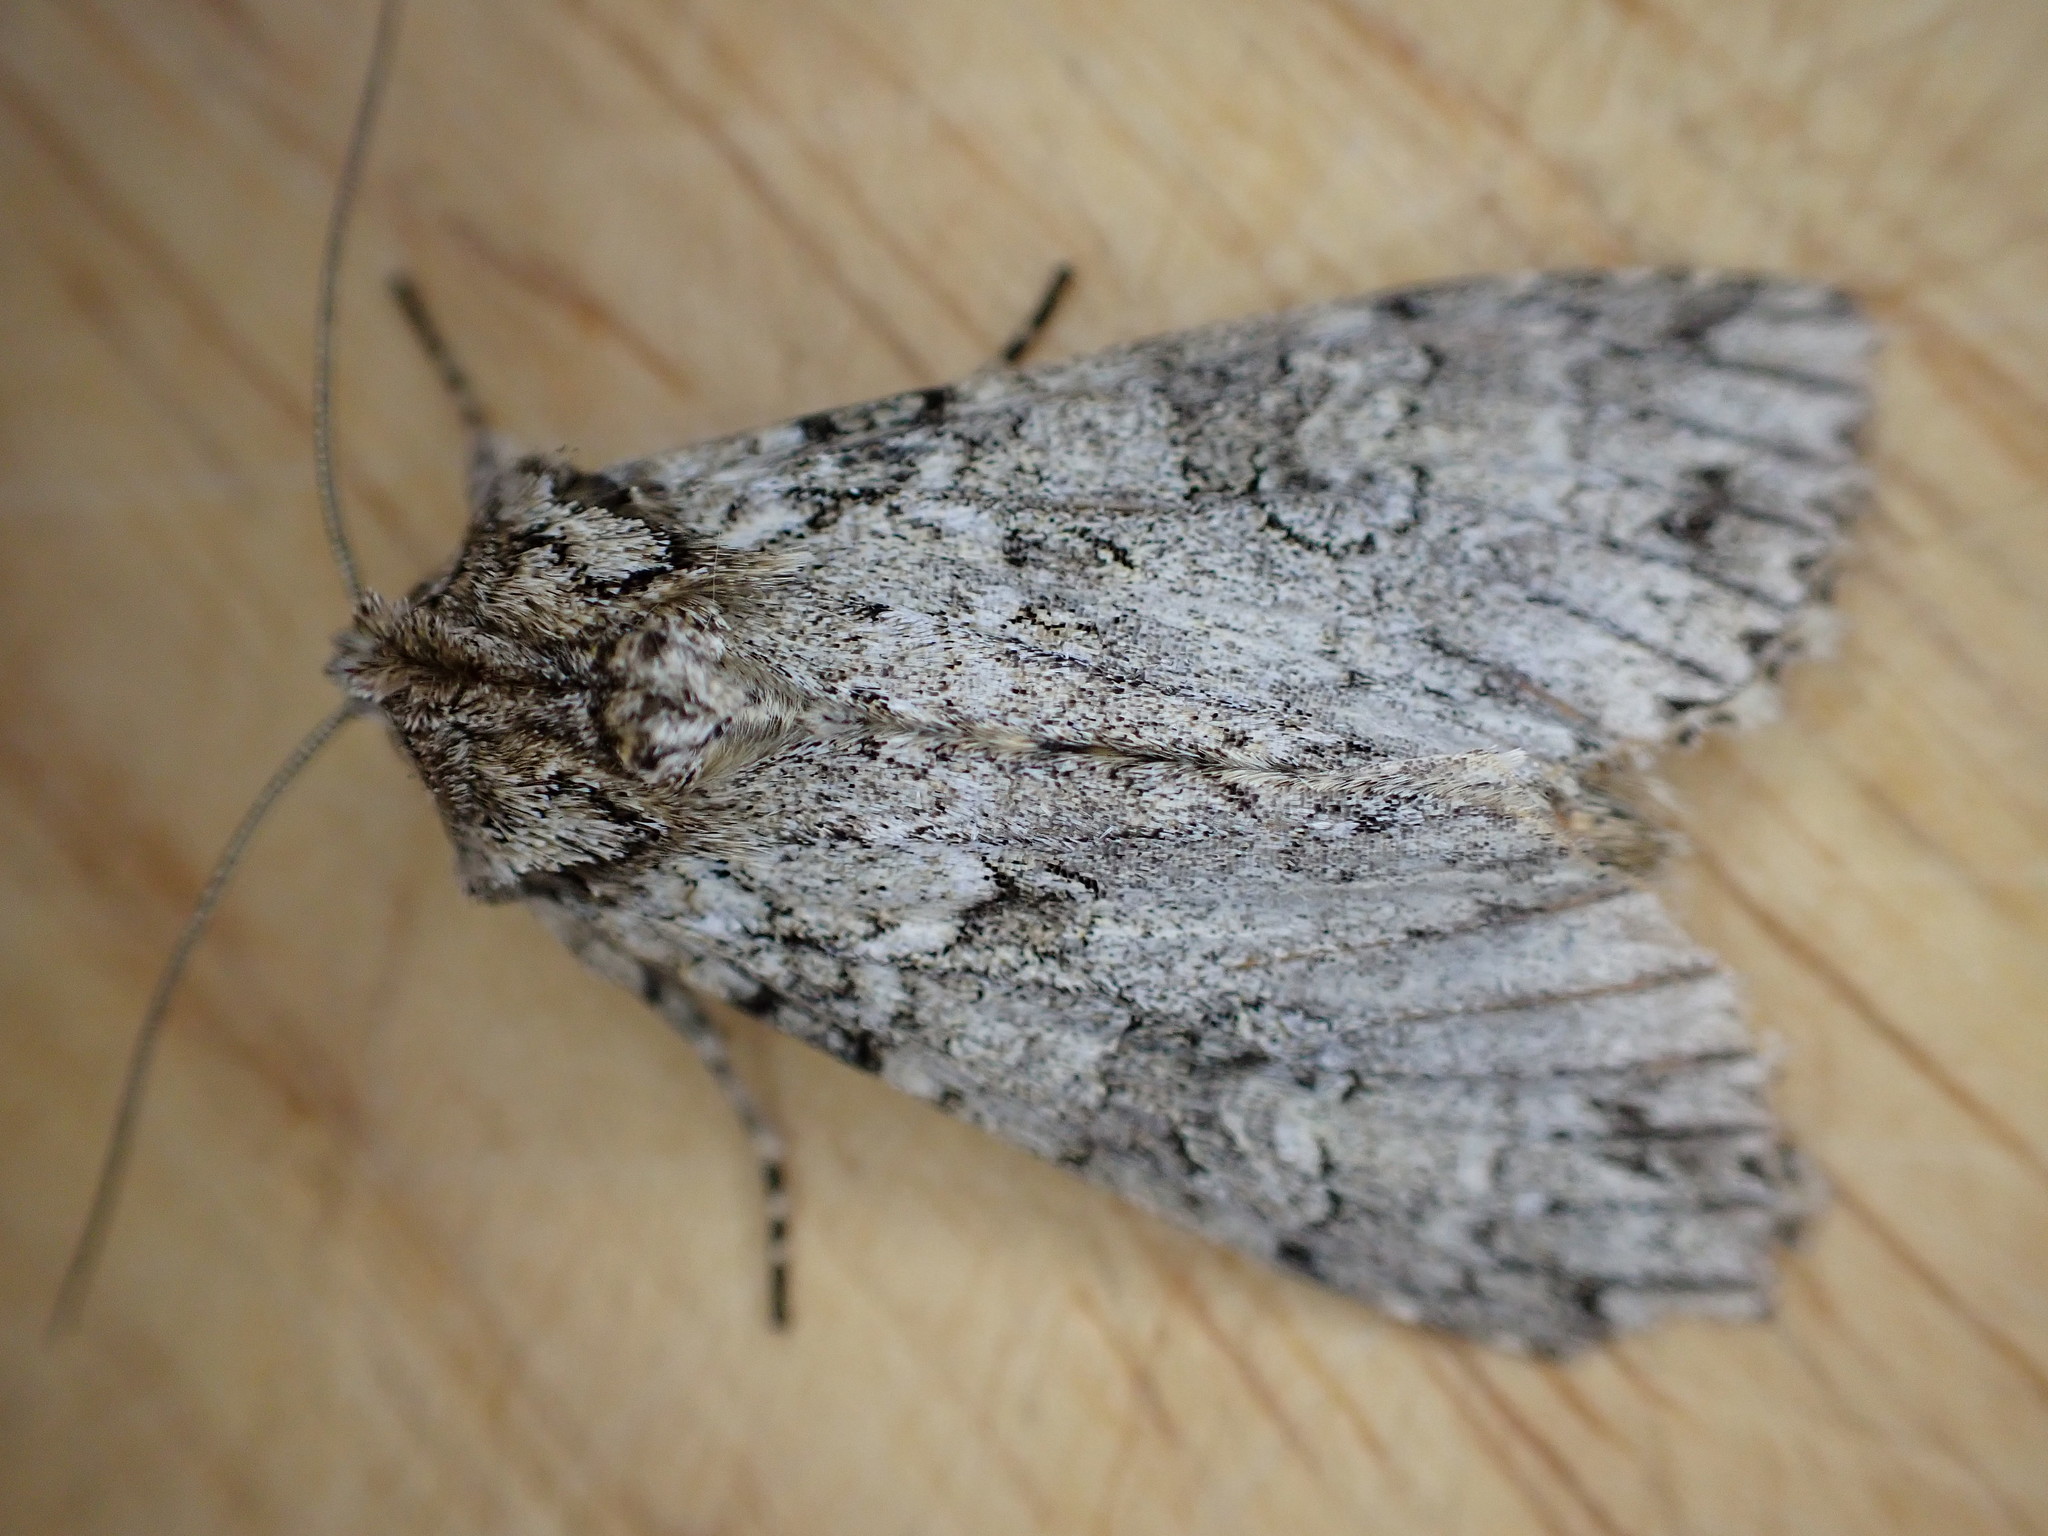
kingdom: Animalia
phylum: Arthropoda
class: Insecta
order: Lepidoptera
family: Noctuidae
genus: Polia
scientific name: Polia nebulosa
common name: Grey arches
